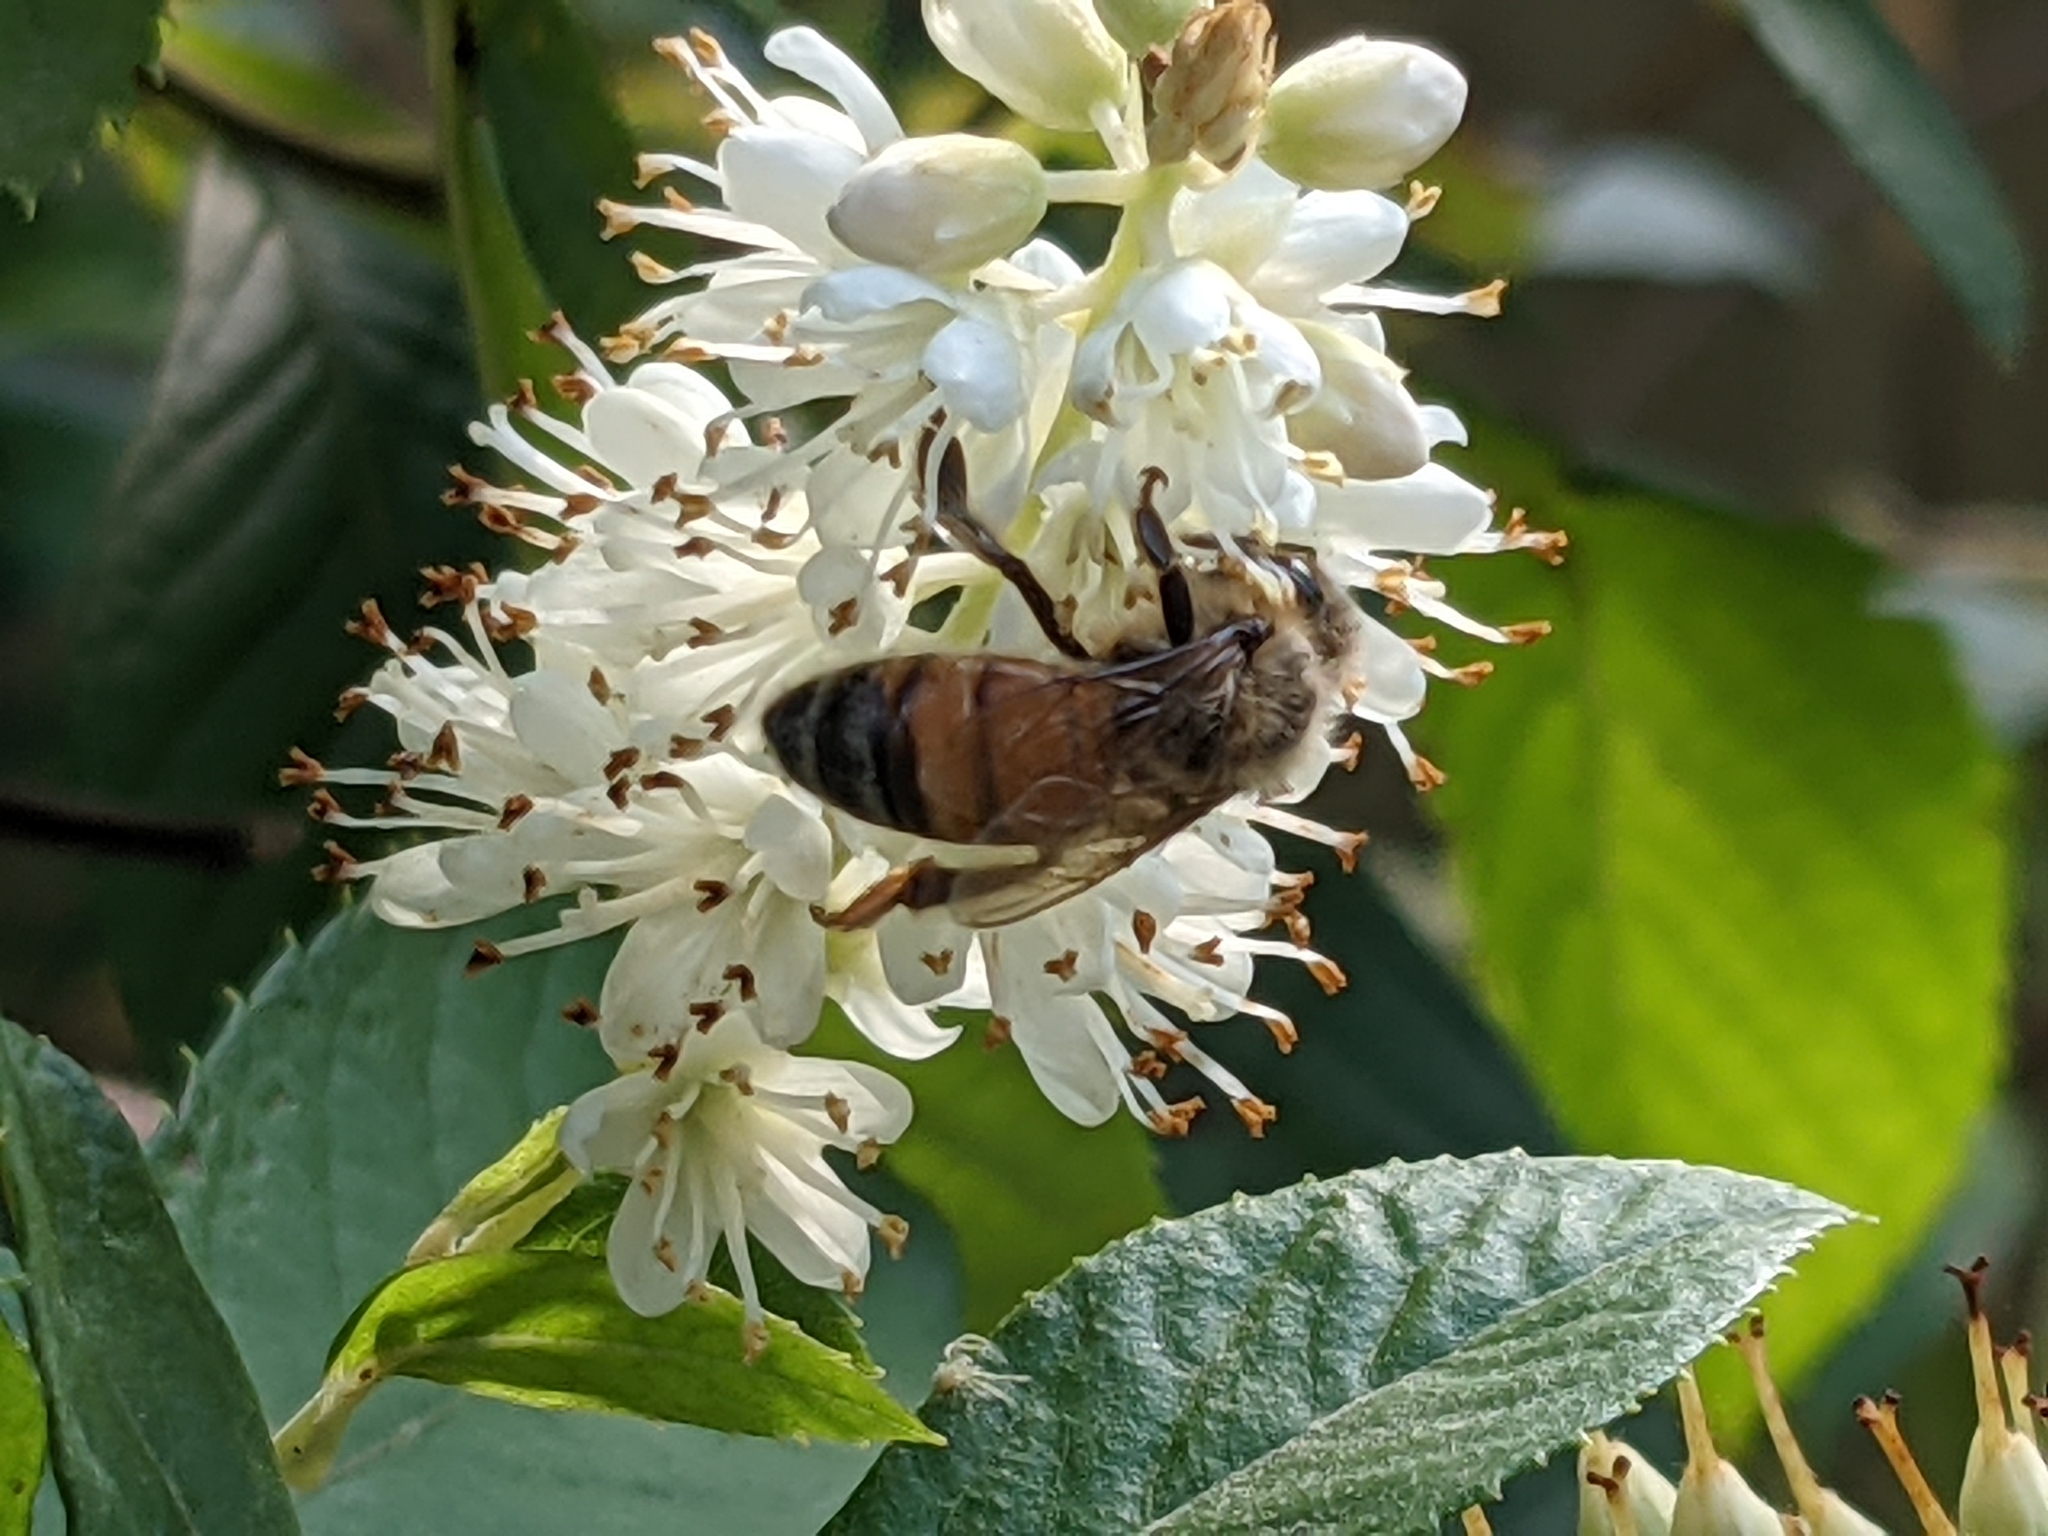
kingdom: Animalia
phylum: Arthropoda
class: Insecta
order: Hymenoptera
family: Apidae
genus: Apis
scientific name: Apis mellifera
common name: Honey bee
